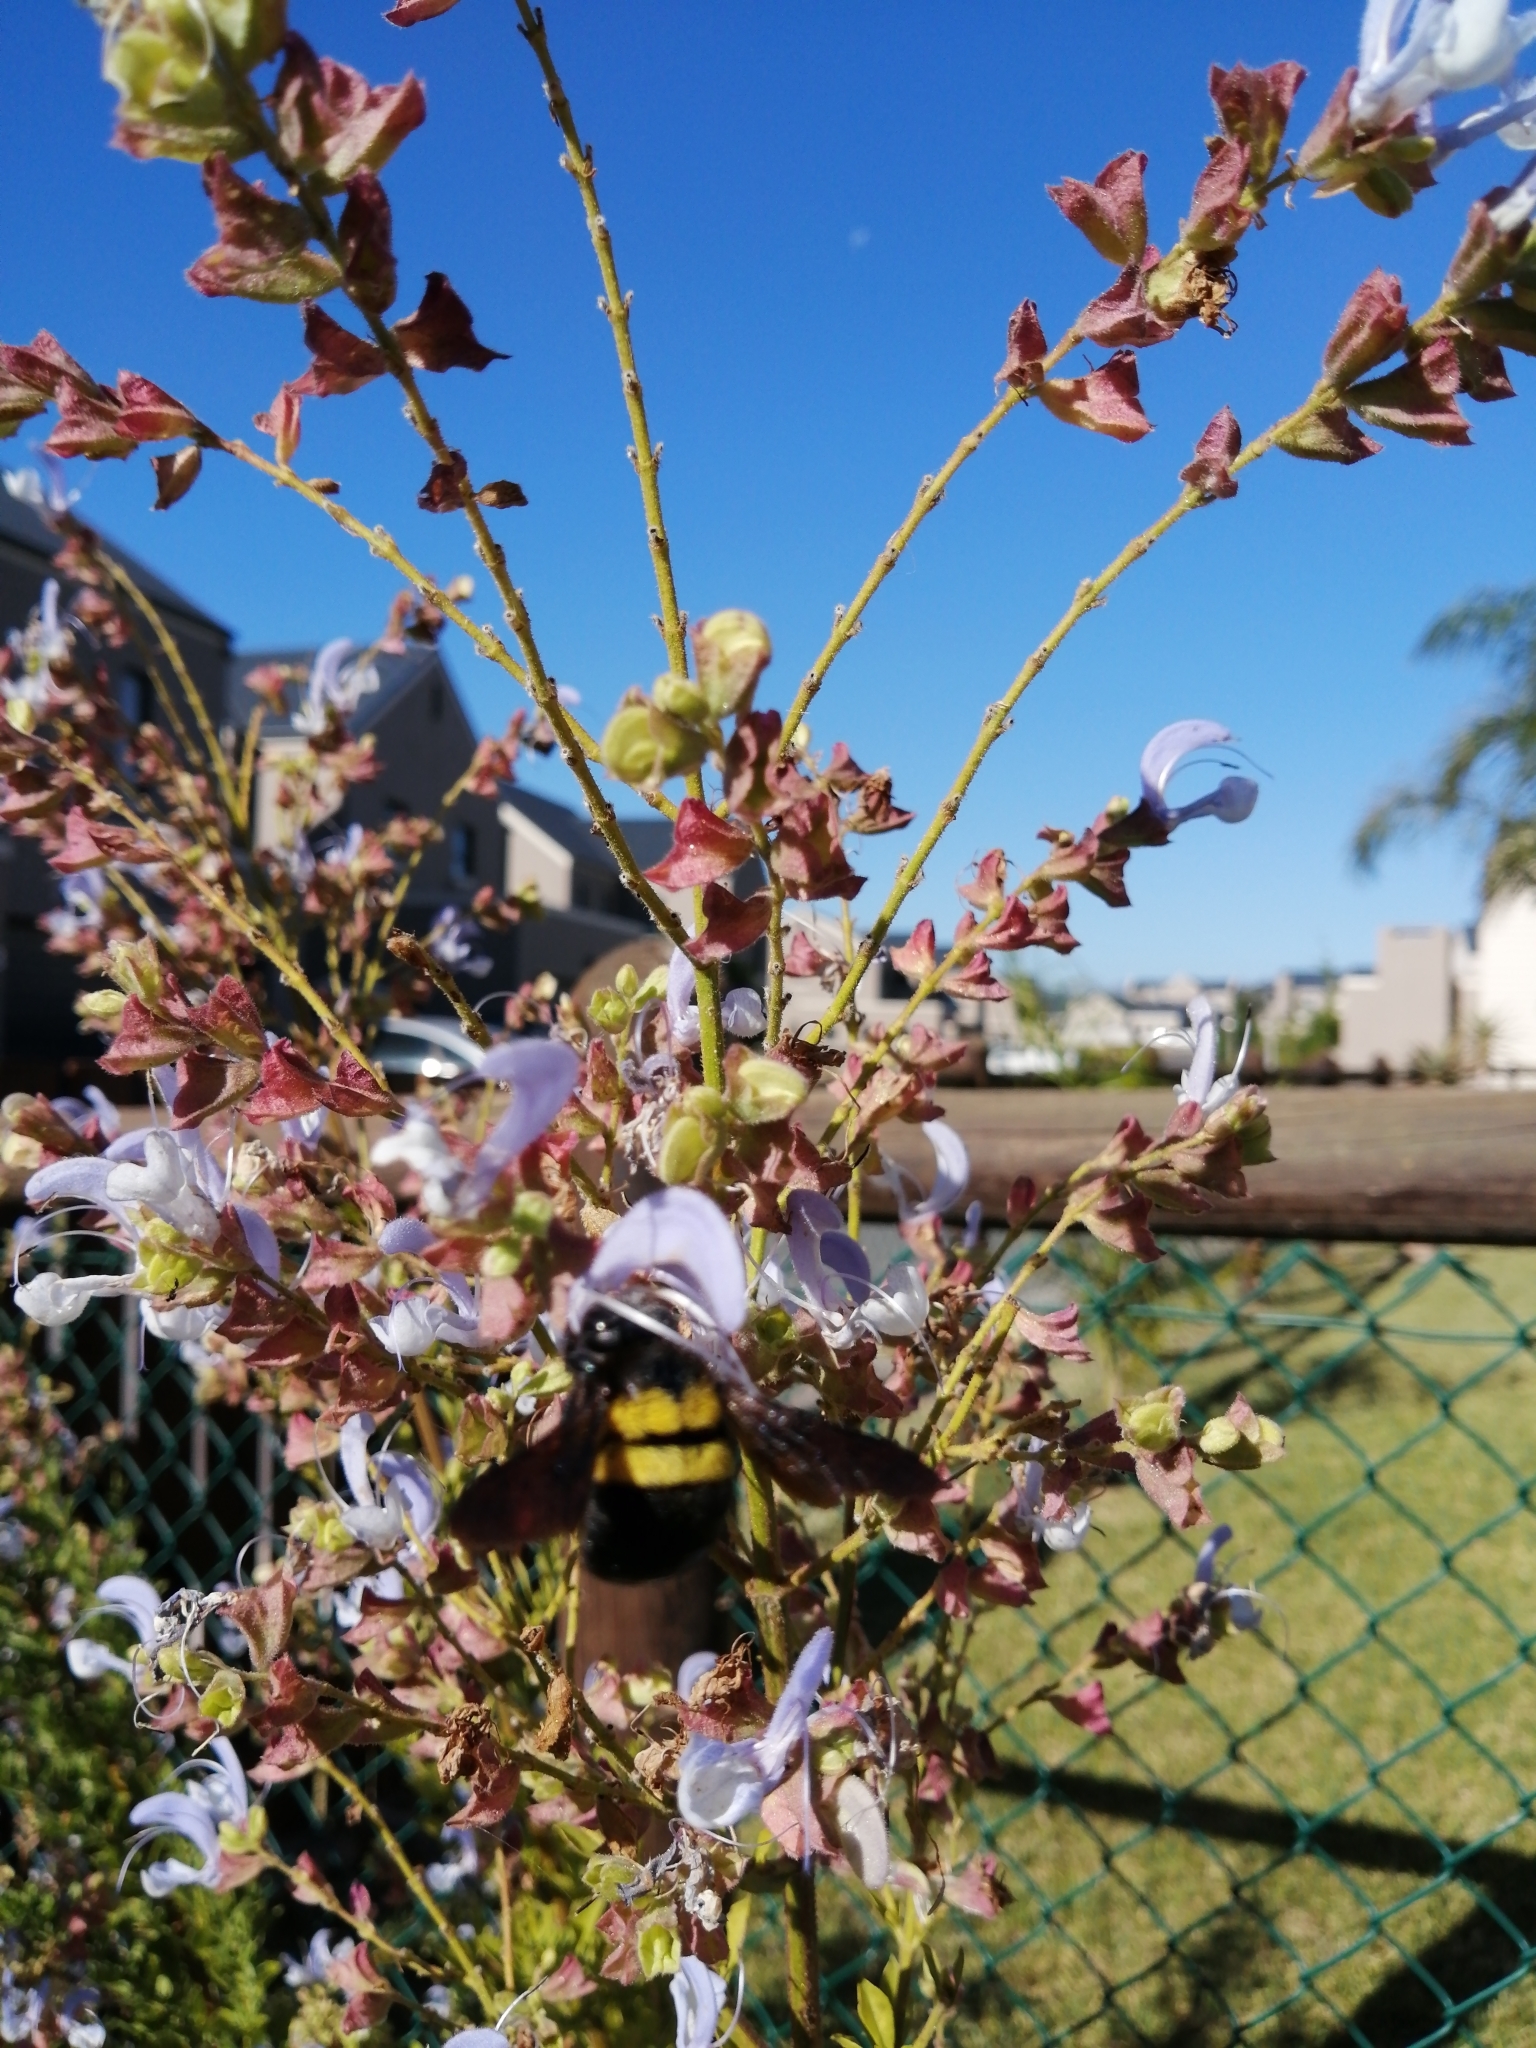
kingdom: Animalia
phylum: Arthropoda
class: Insecta
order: Hymenoptera
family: Apidae
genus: Xylocopa
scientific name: Xylocopa caffra
